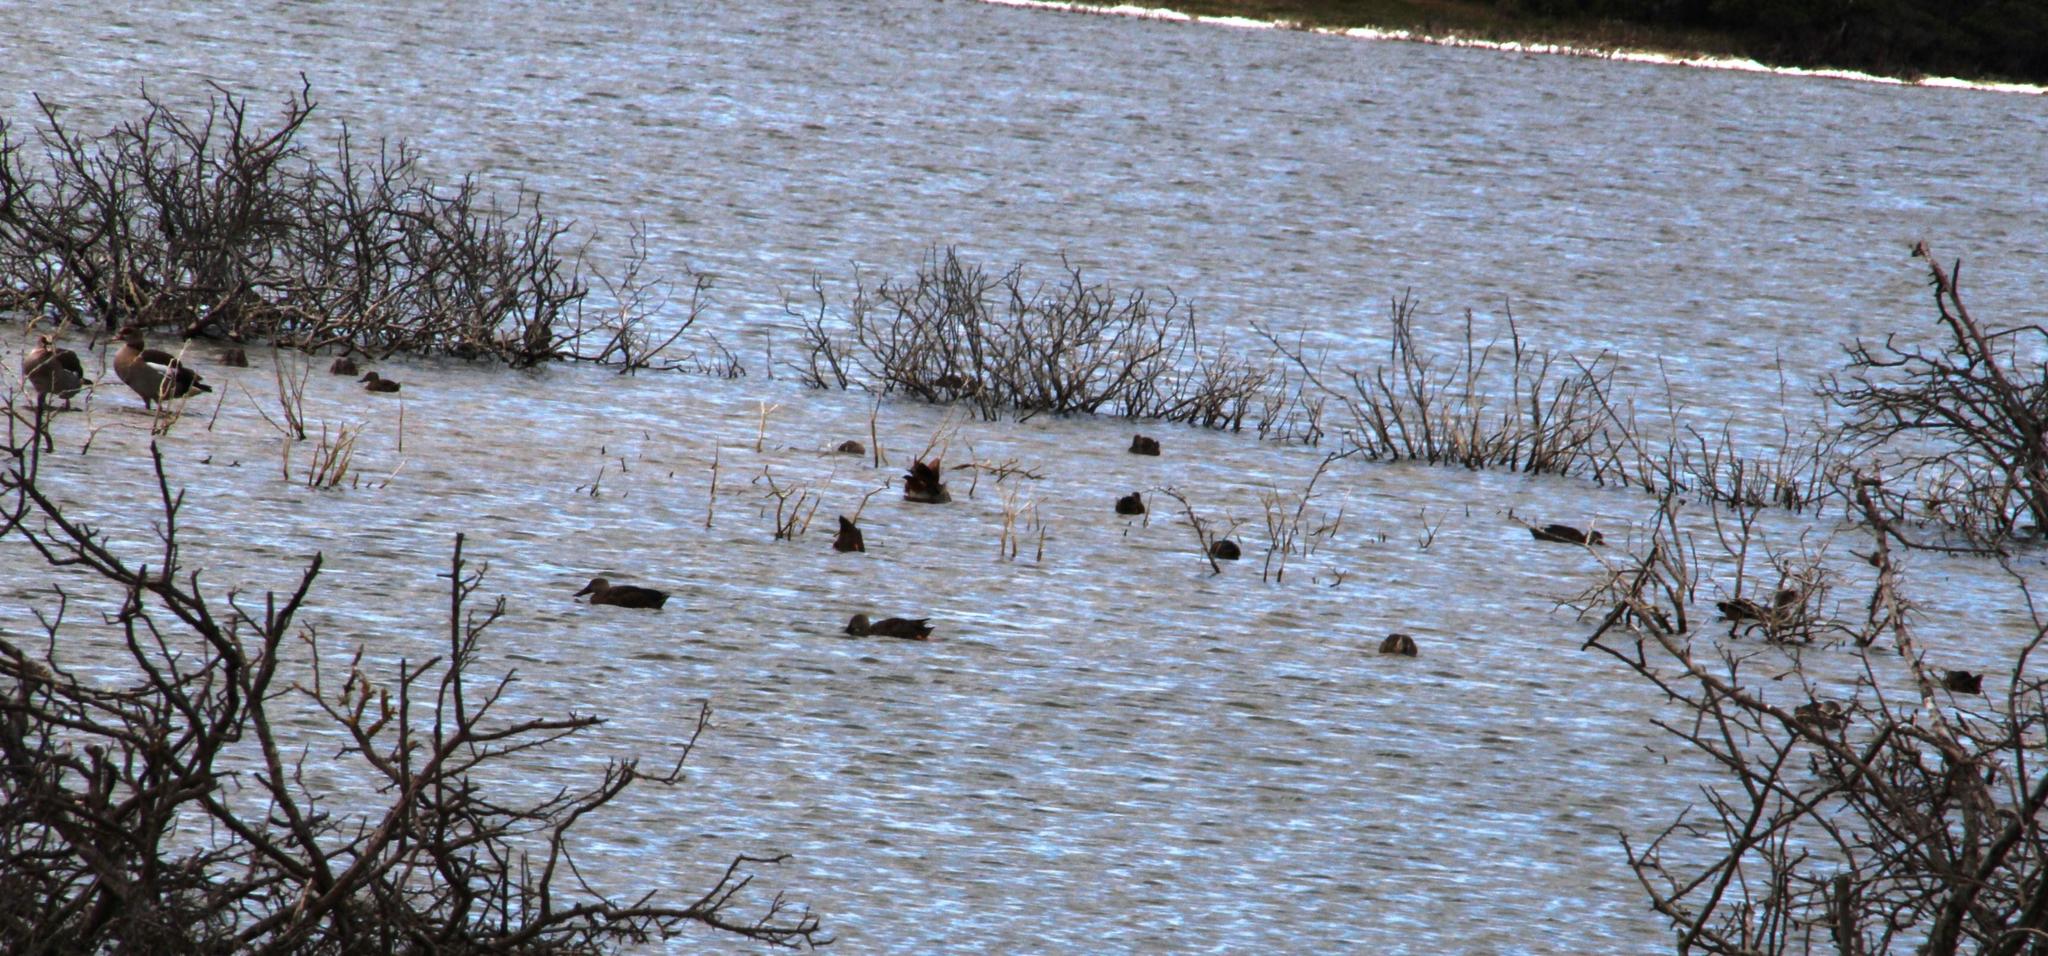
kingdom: Animalia
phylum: Chordata
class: Aves
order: Anseriformes
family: Anatidae
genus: Spatula
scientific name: Spatula smithii
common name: Cape shoveler
